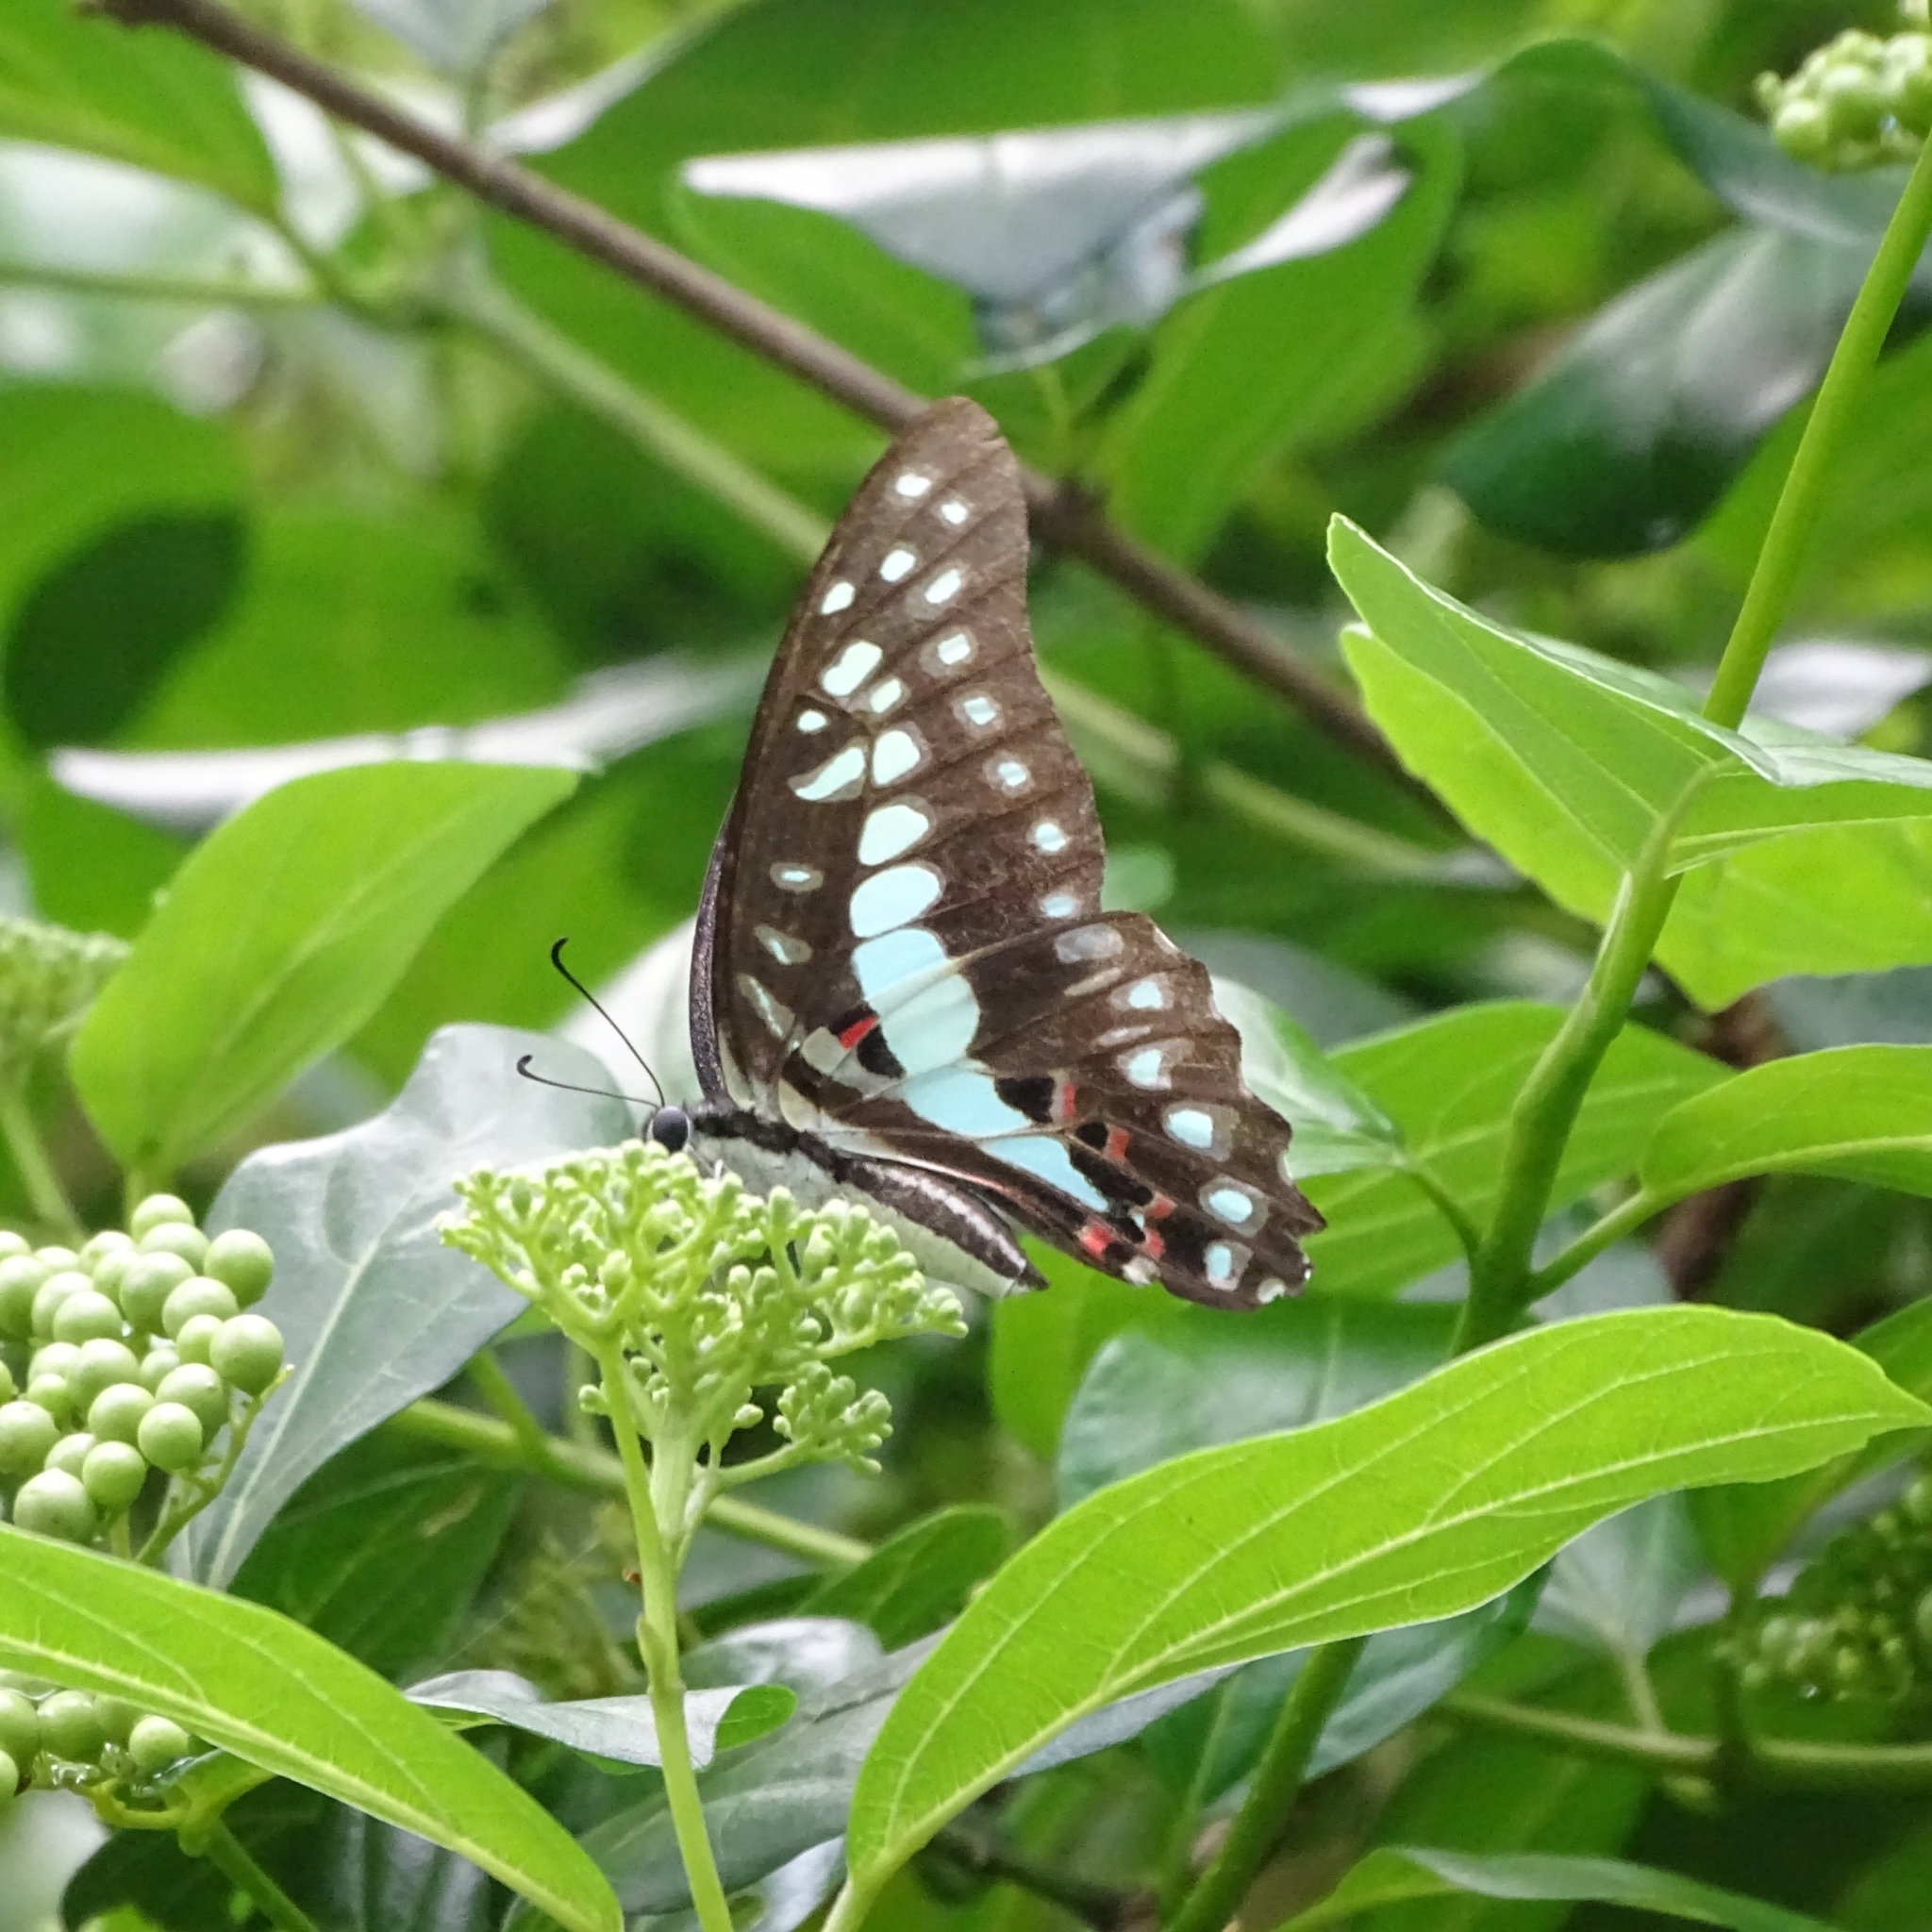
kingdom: Animalia
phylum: Arthropoda
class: Insecta
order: Lepidoptera
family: Papilionidae
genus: Graphium
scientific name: Graphium doson
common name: Common jay
